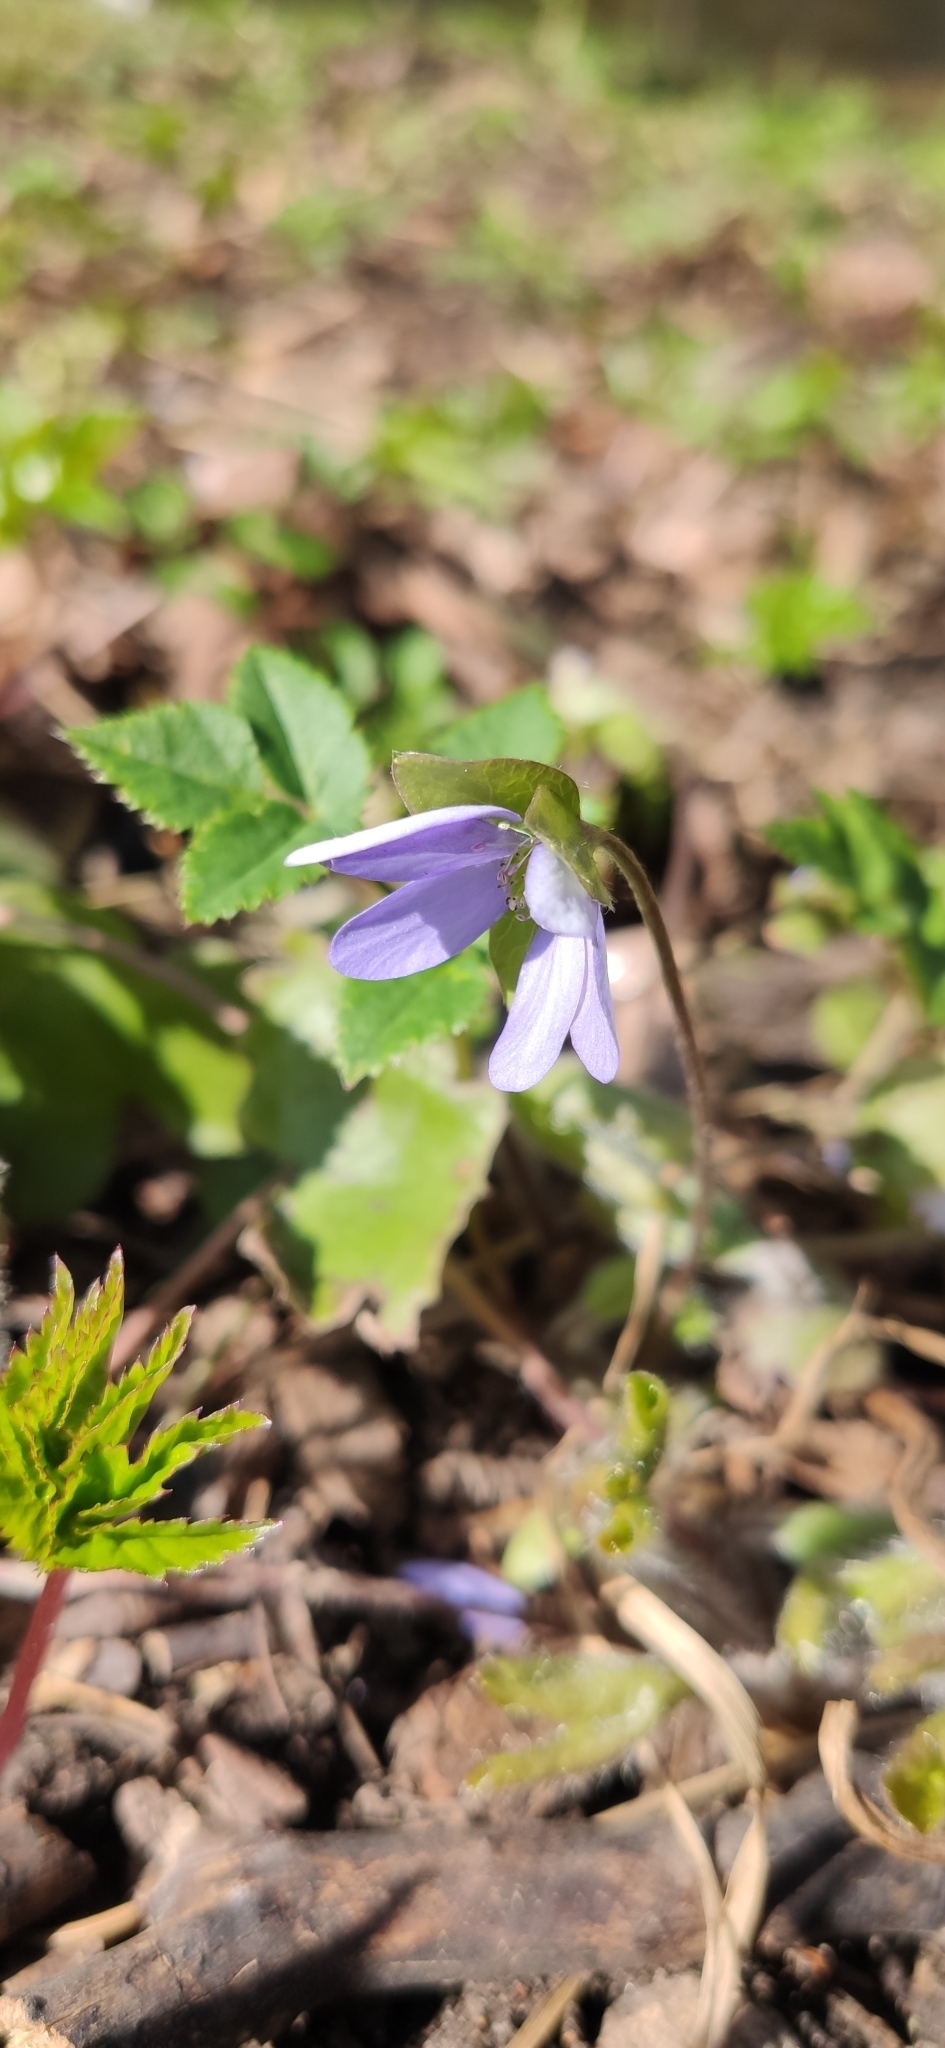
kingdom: Plantae
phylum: Tracheophyta
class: Magnoliopsida
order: Ranunculales
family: Ranunculaceae
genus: Hepatica
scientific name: Hepatica nobilis
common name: Liverleaf
